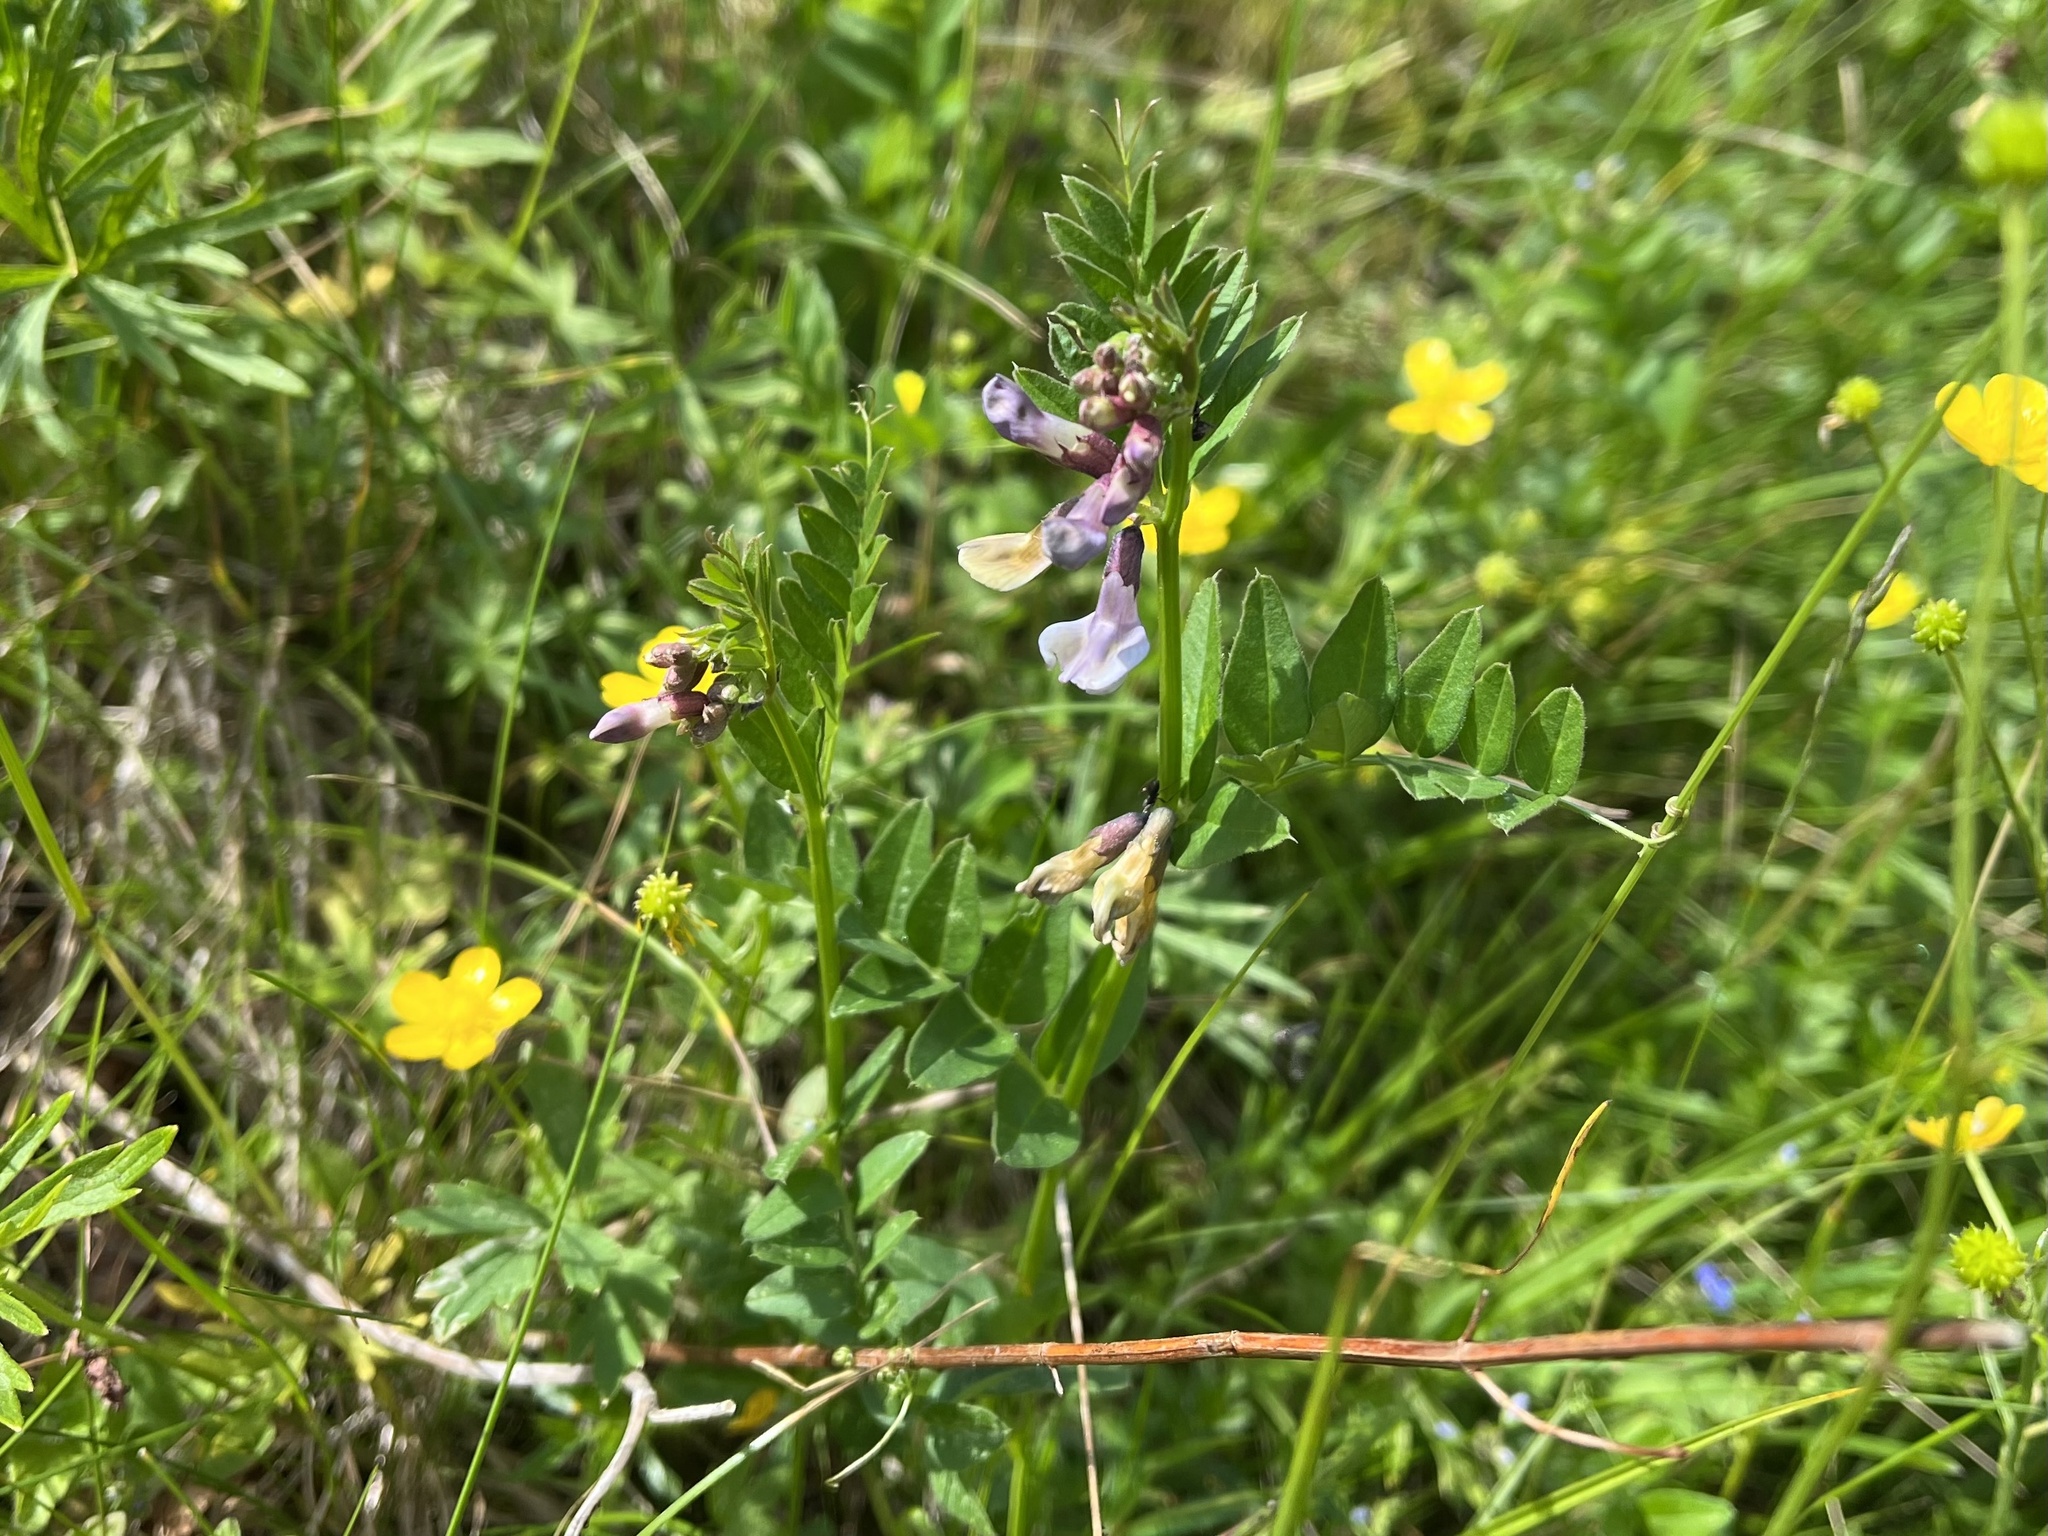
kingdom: Plantae
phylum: Tracheophyta
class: Magnoliopsida
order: Fabales
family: Fabaceae
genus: Vicia
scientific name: Vicia sepium
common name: Bush vetch
